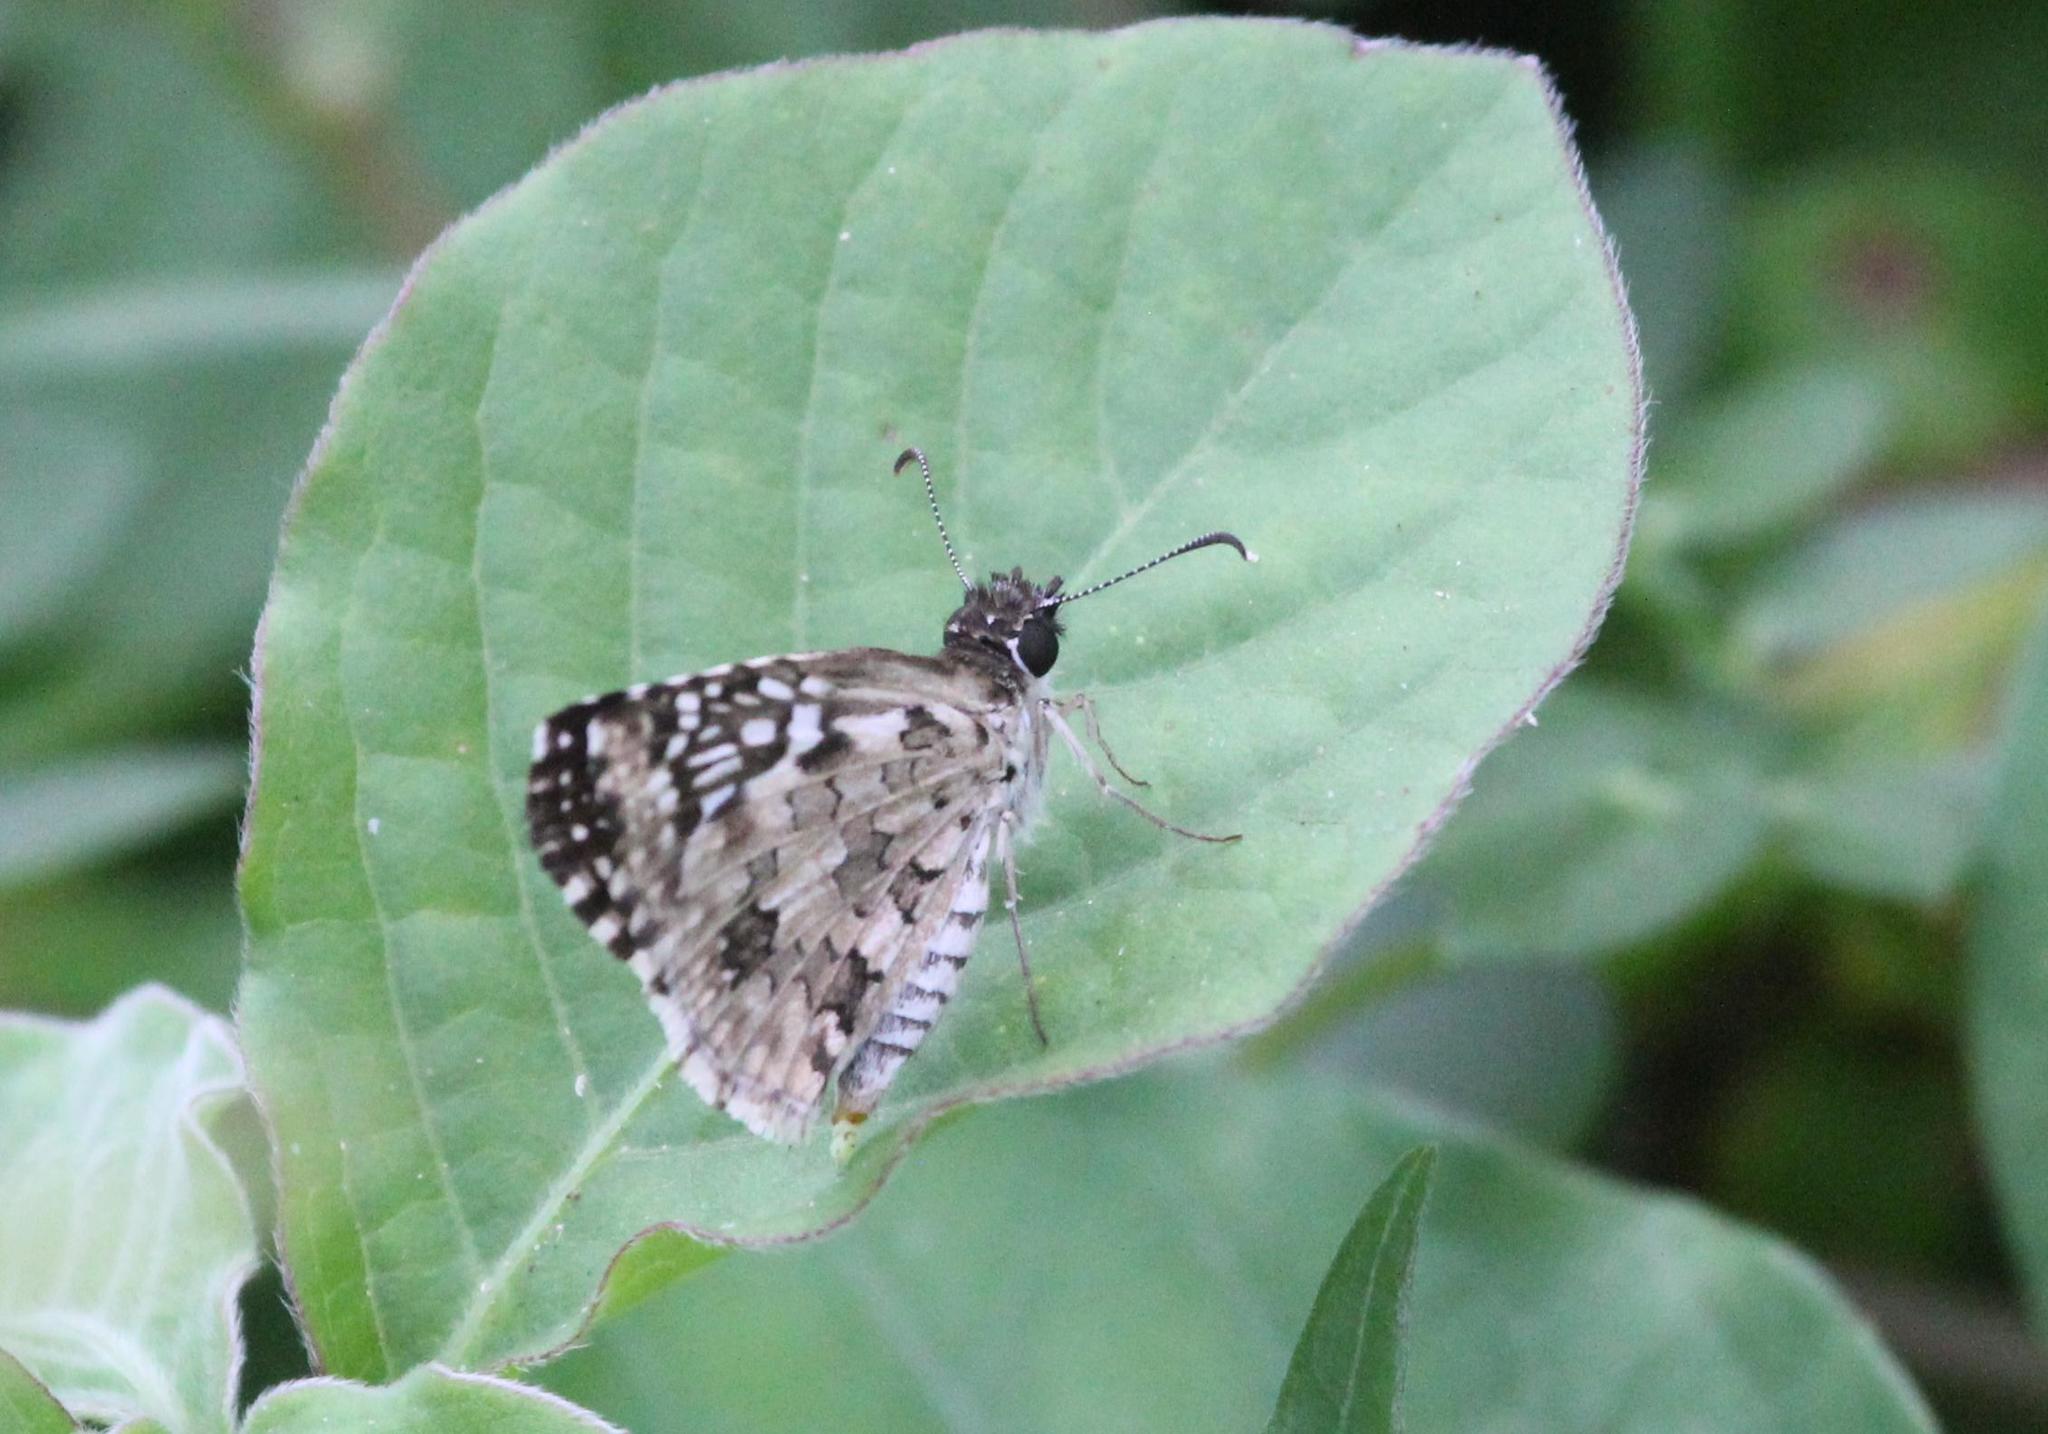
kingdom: Animalia
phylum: Arthropoda
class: Insecta
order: Lepidoptera
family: Hesperiidae
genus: Pyrgus
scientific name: Pyrgus oileus
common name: Tropical checkered-skipper
